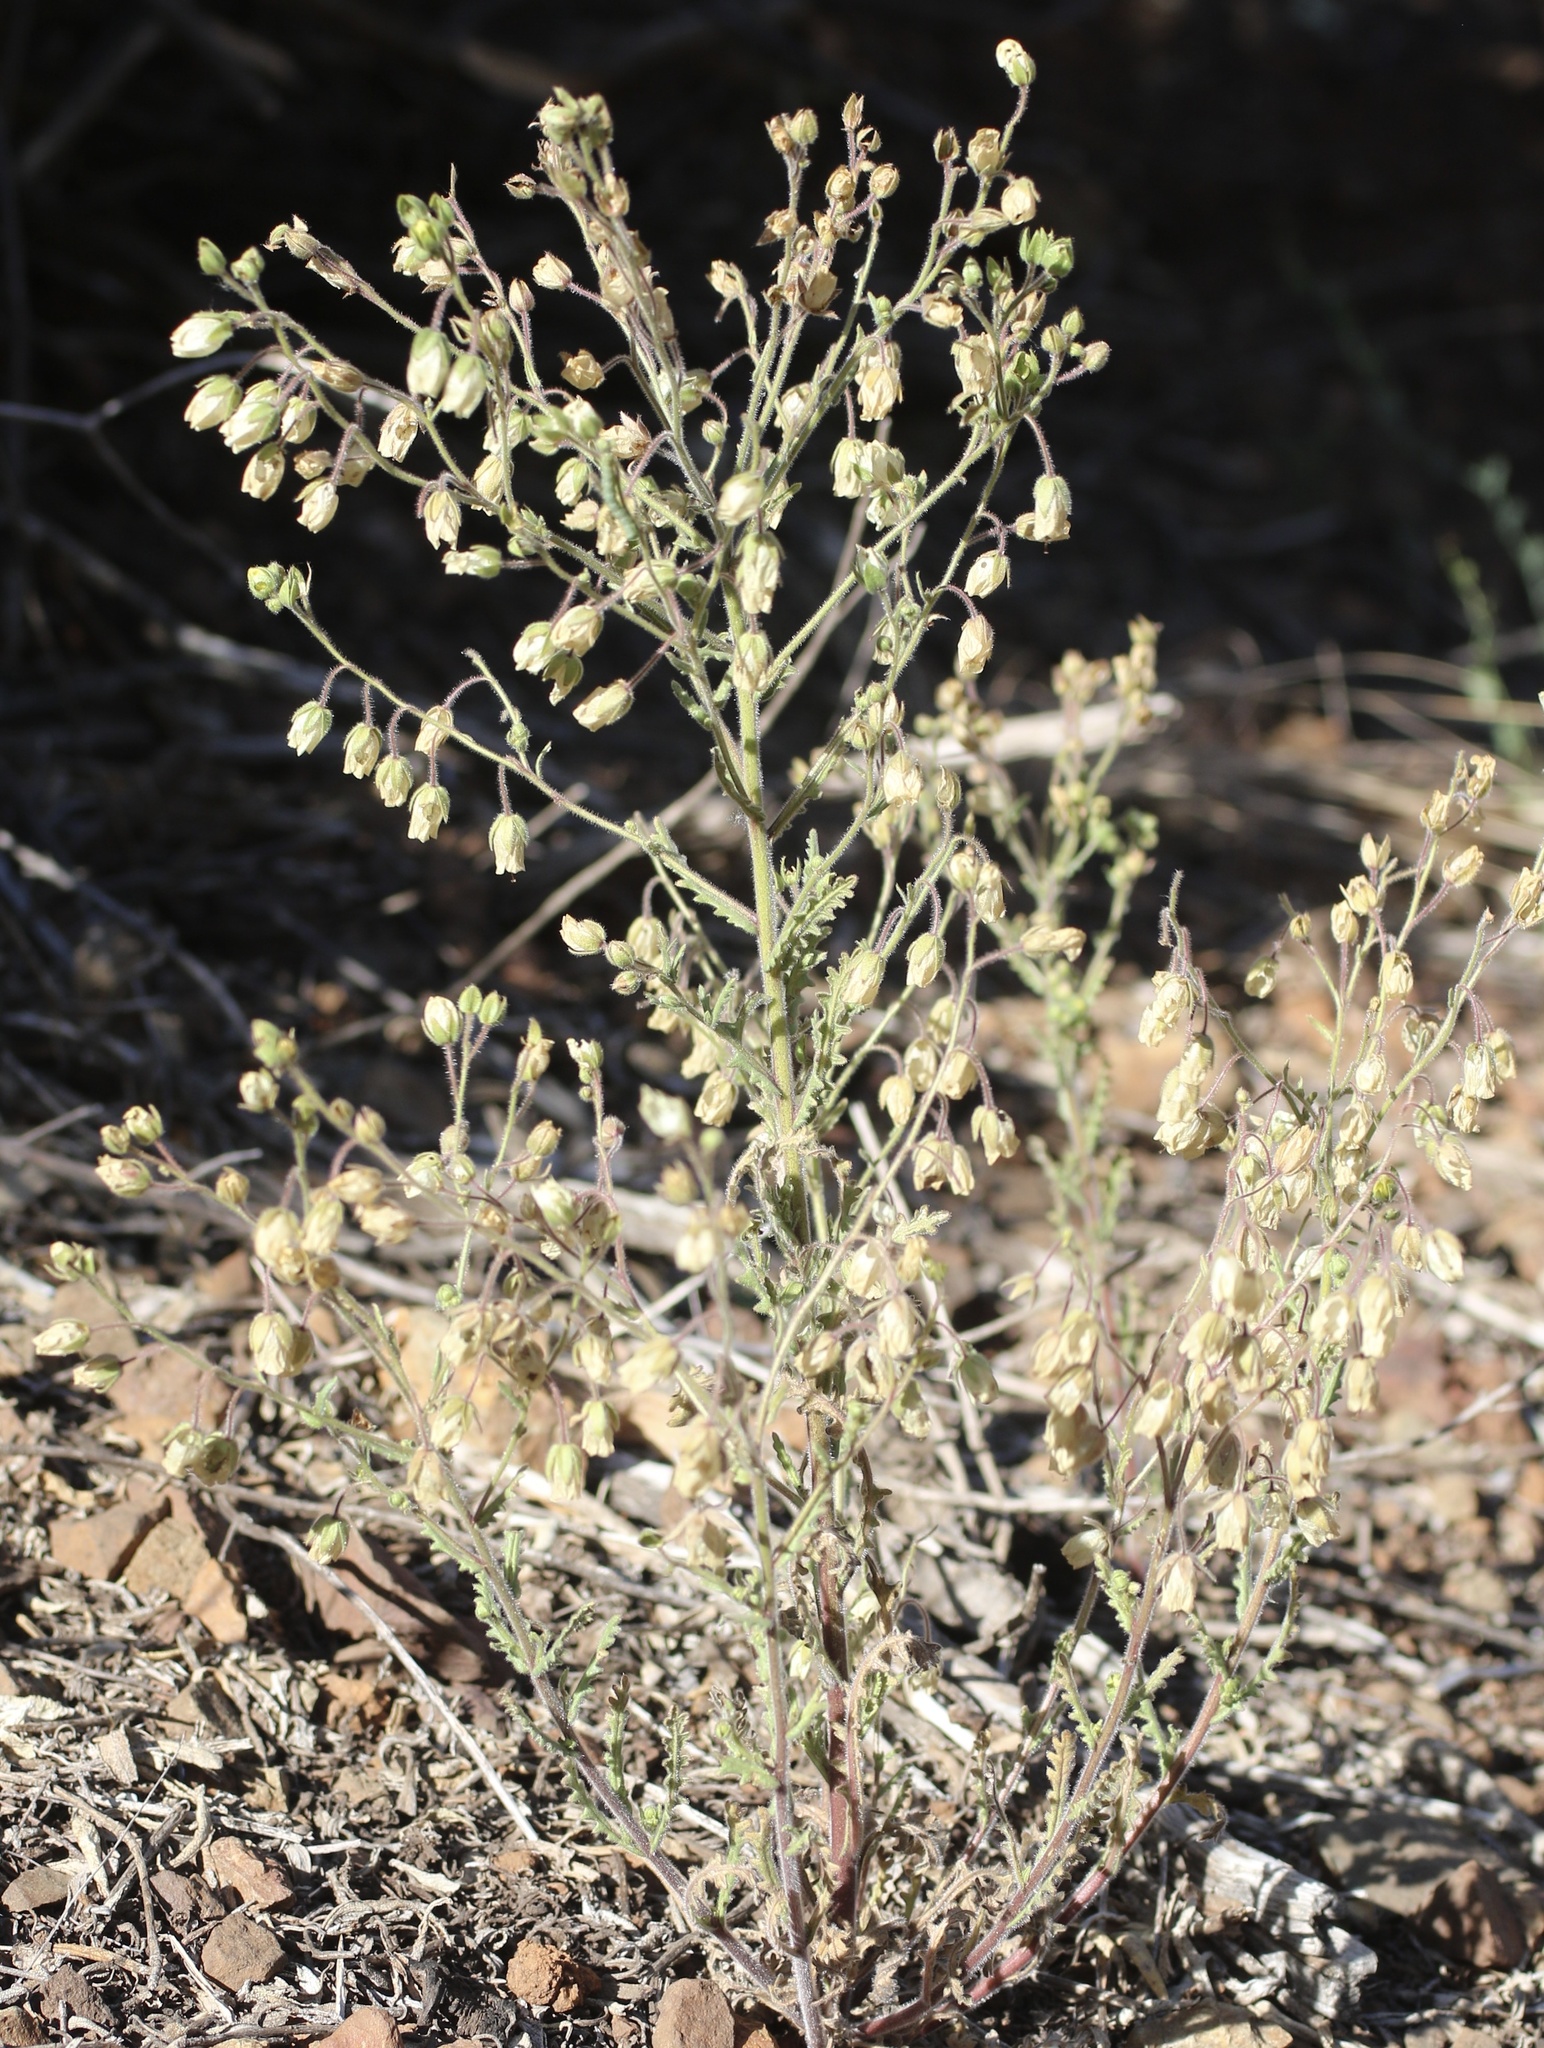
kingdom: Plantae
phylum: Tracheophyta
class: Magnoliopsida
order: Boraginales
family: Hydrophyllaceae
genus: Emmenanthe
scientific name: Emmenanthe penduliflora
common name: Whispering-bells
